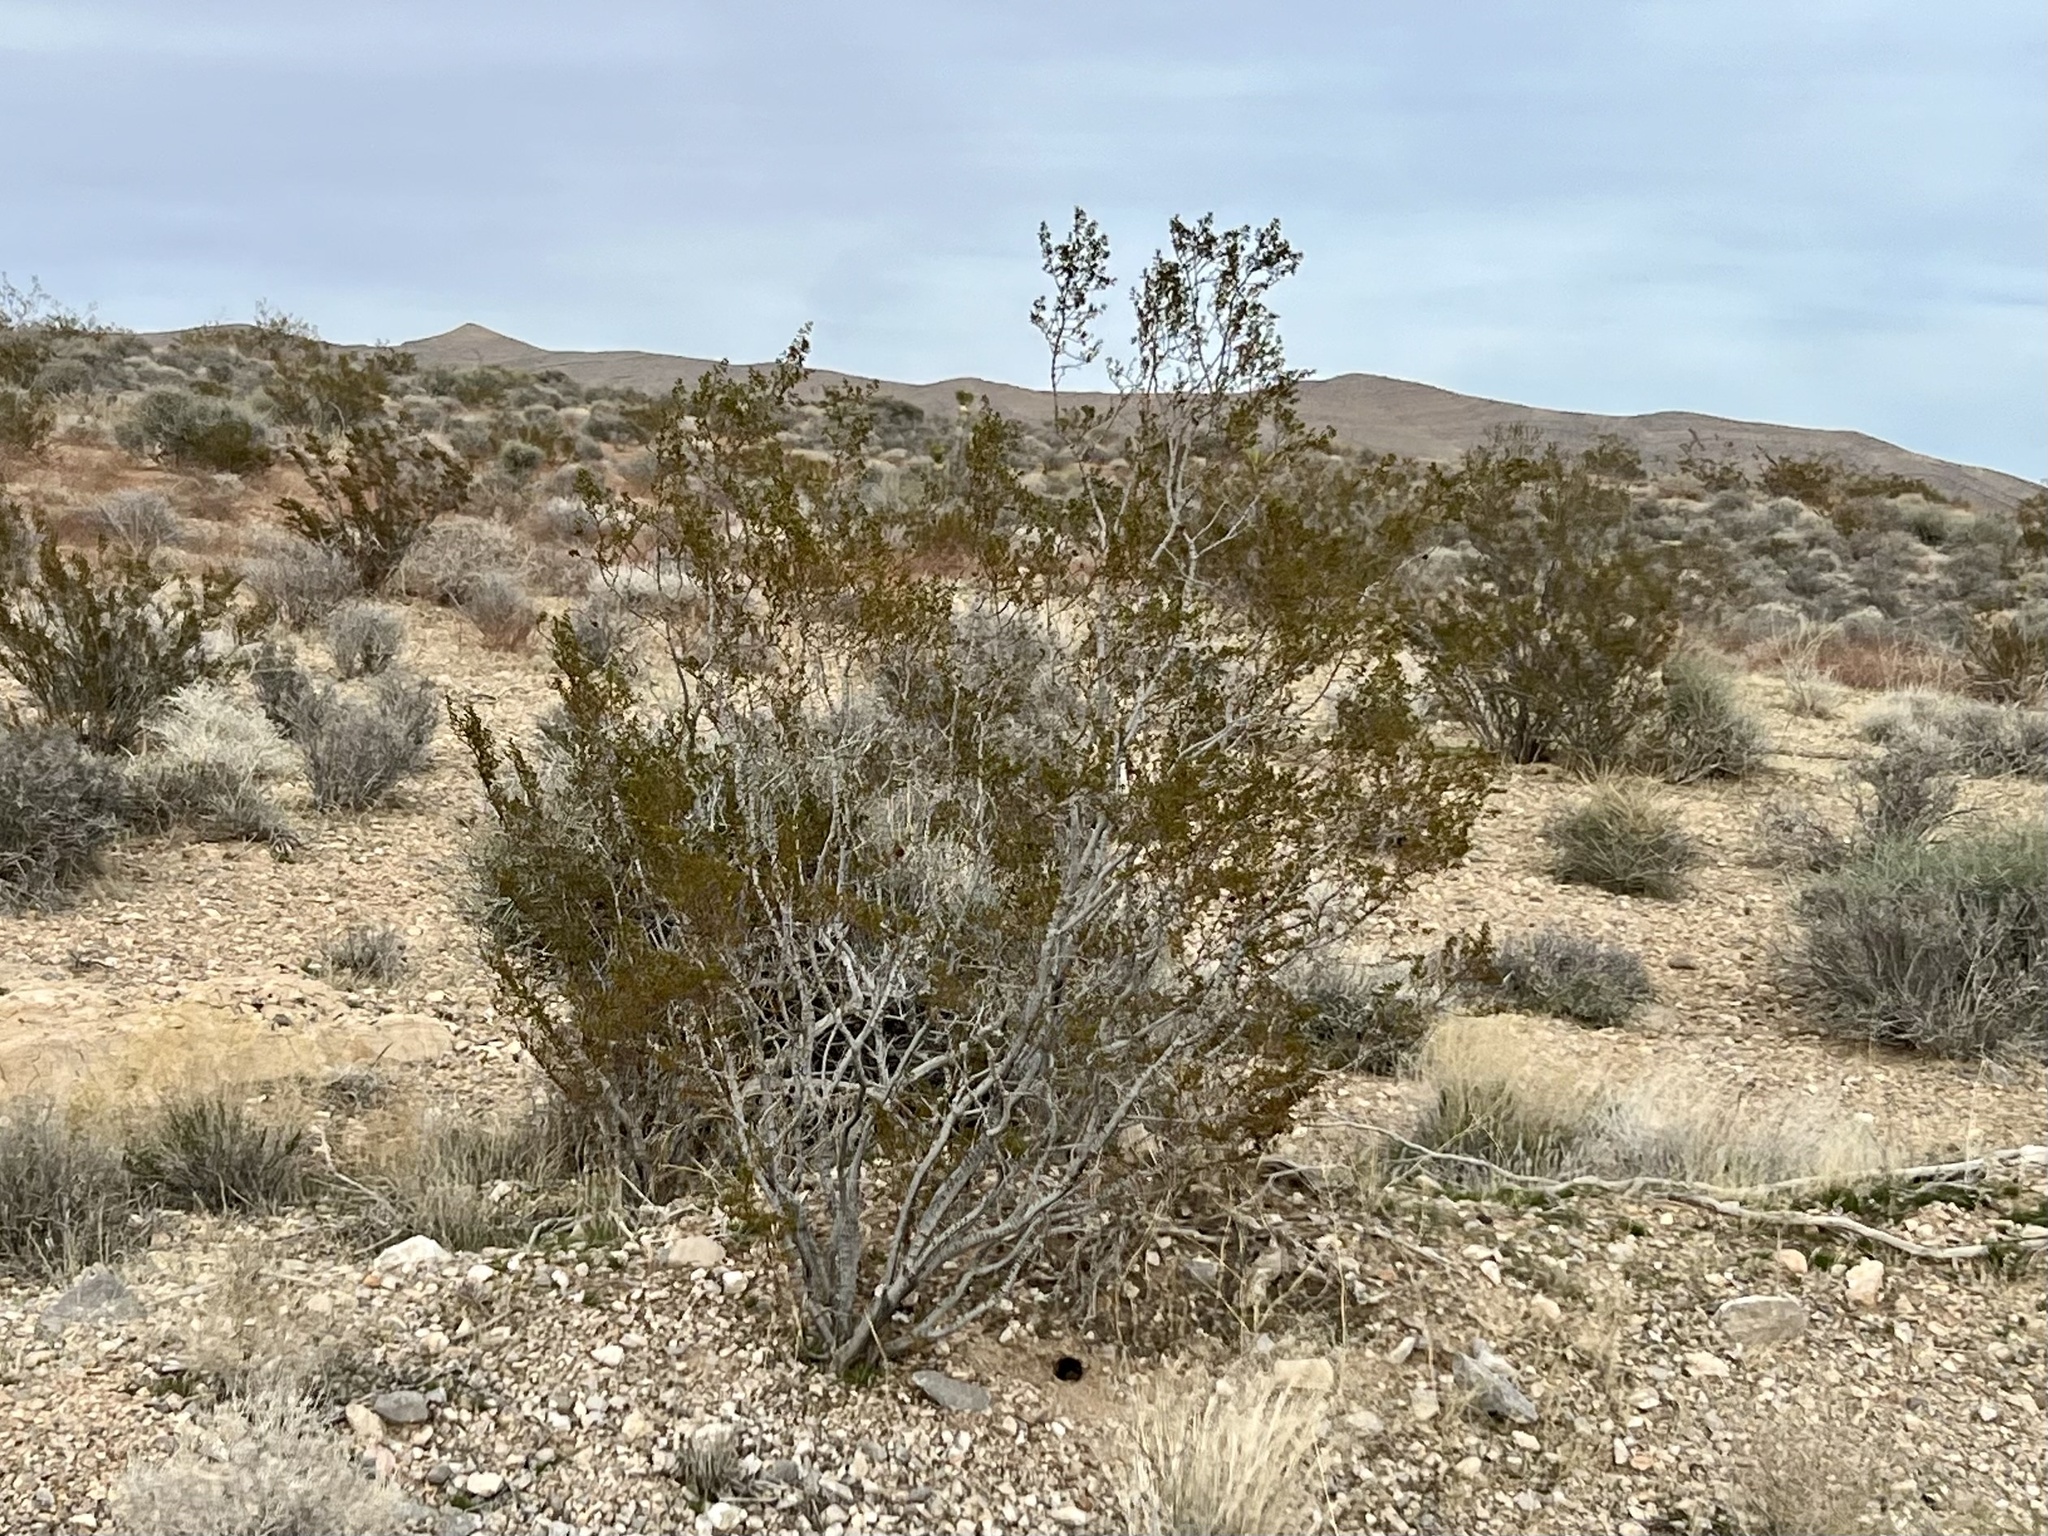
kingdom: Plantae
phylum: Tracheophyta
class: Magnoliopsida
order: Zygophyllales
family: Zygophyllaceae
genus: Larrea
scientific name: Larrea tridentata
